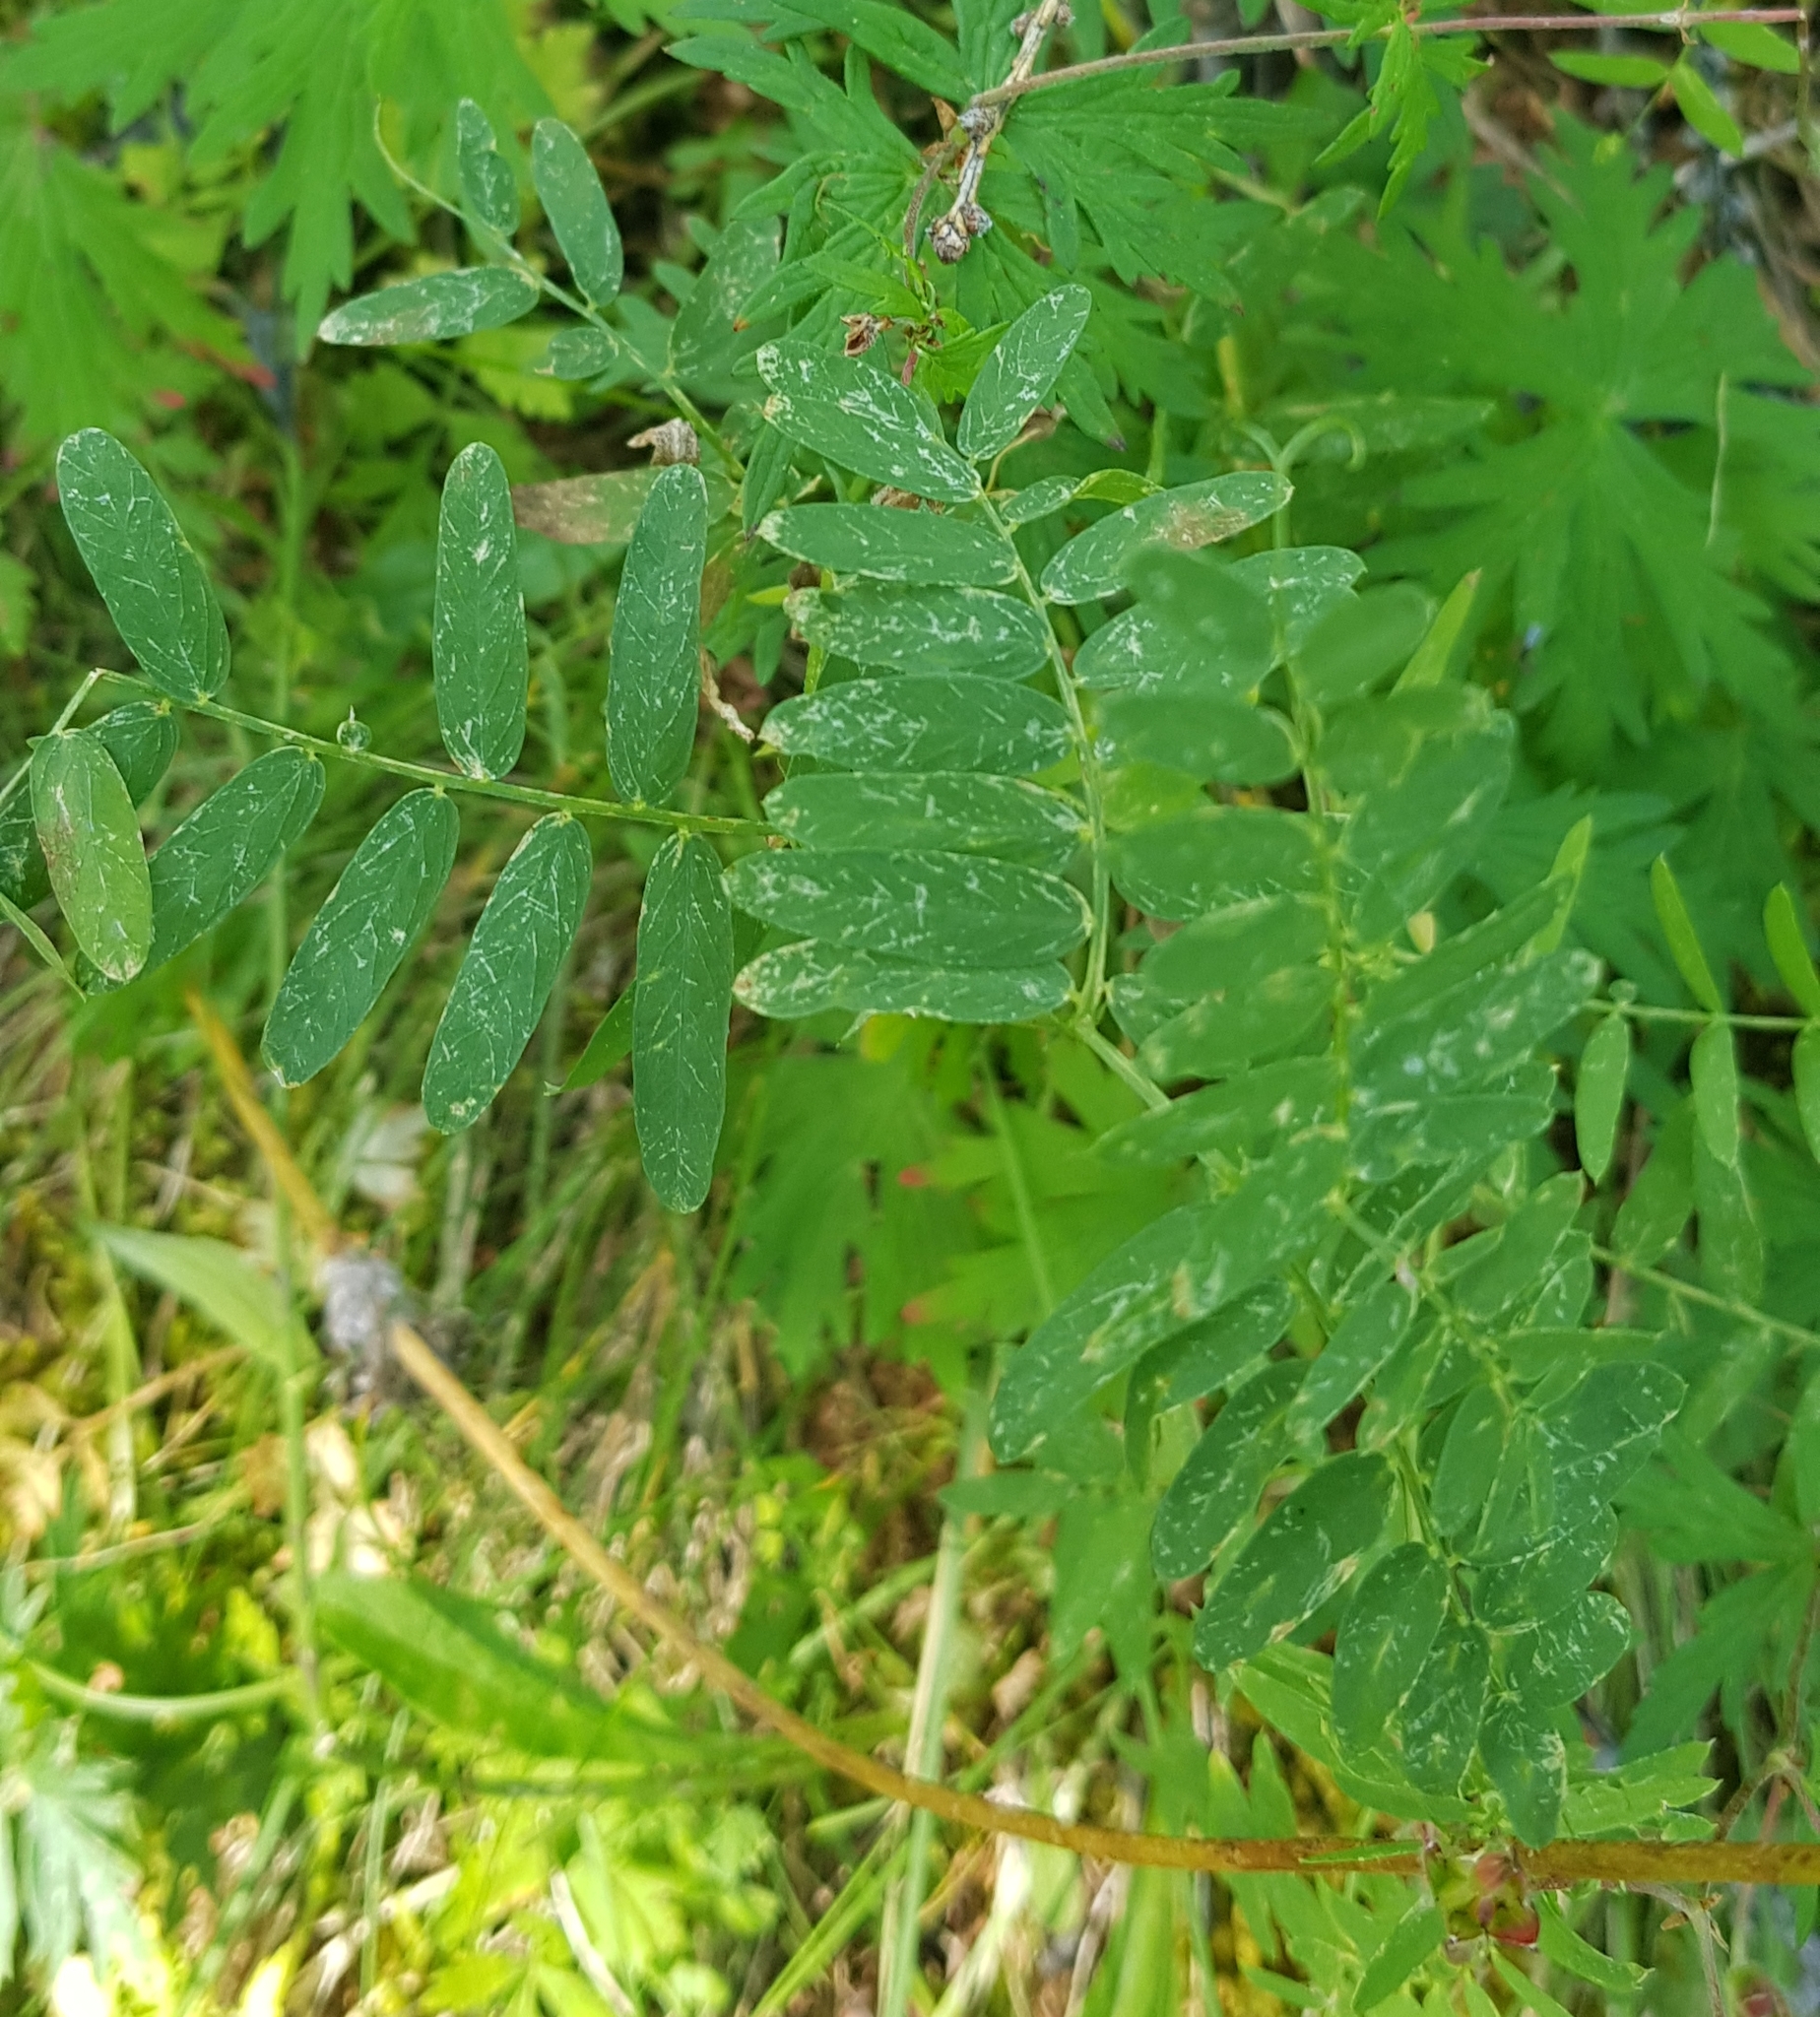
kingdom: Plantae
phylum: Tracheophyta
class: Magnoliopsida
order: Fabales
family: Fabaceae
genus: Lathyrus
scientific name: Lathyrus palustris
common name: Marsh pea
